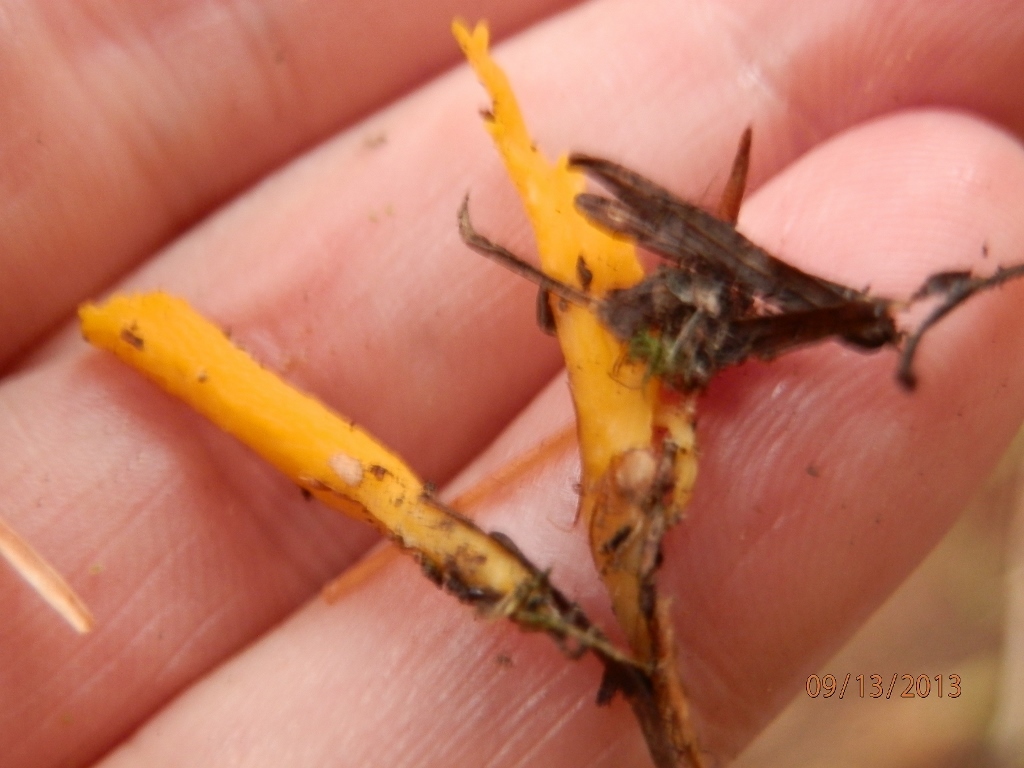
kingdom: Fungi
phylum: Basidiomycota
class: Dacrymycetes
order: Dacrymycetales
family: Dacrymycetaceae
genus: Calocera
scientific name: Calocera viscosa
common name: Yellow stagshorn
